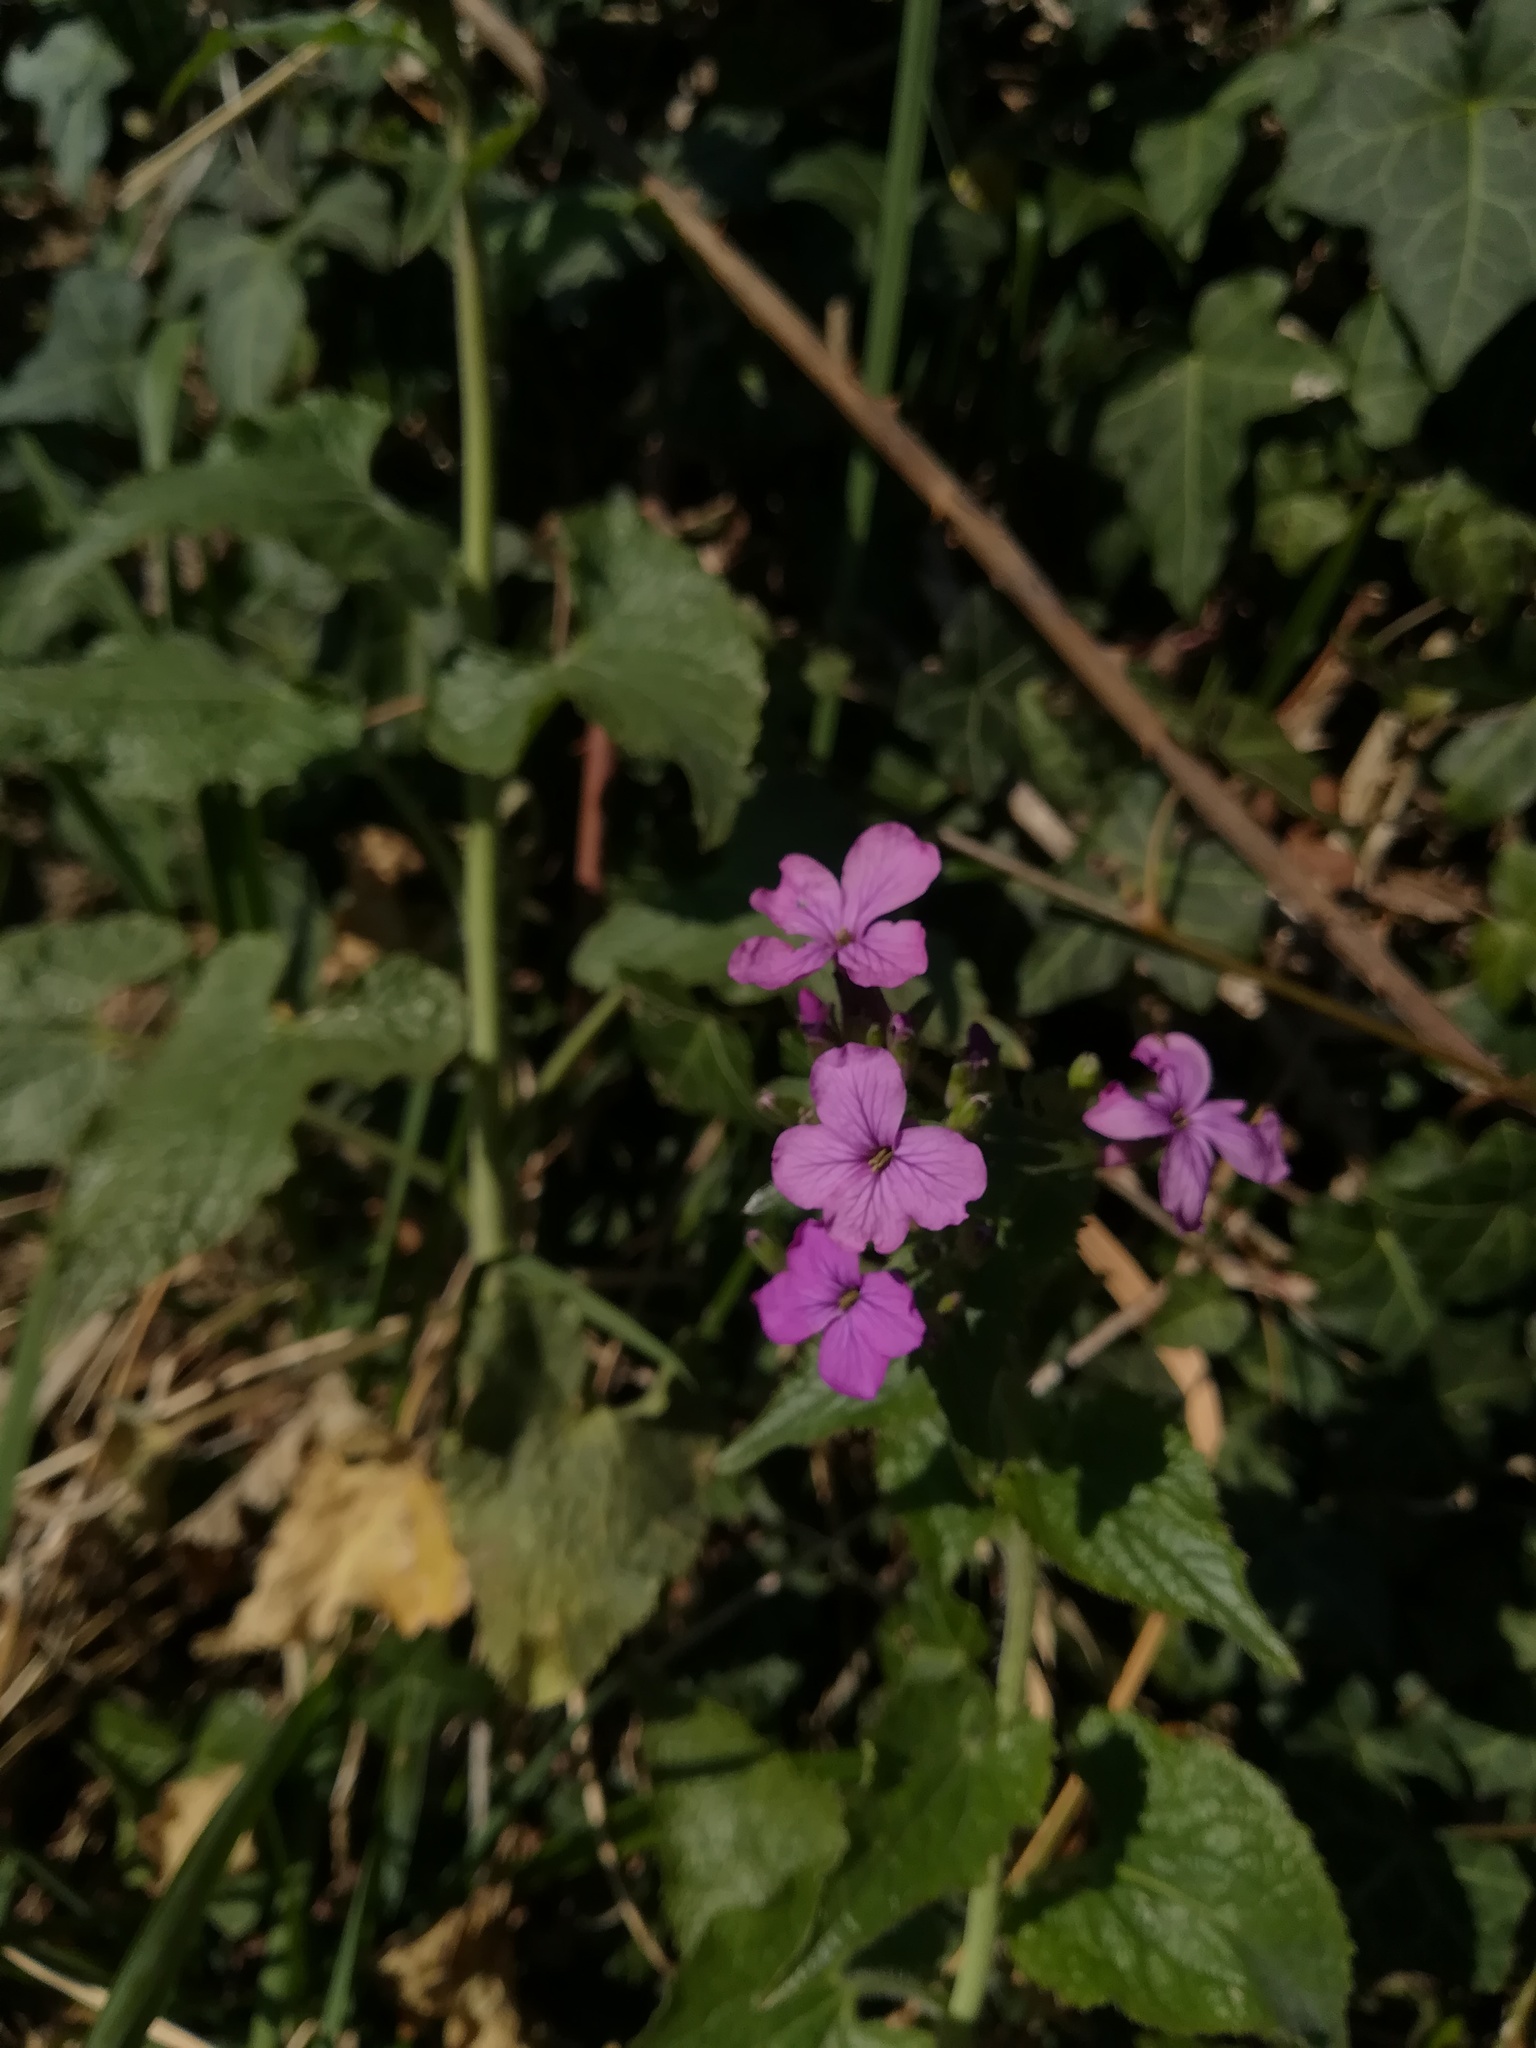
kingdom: Plantae
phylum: Tracheophyta
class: Magnoliopsida
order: Brassicales
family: Brassicaceae
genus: Lunaria
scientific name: Lunaria annua
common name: Honesty
